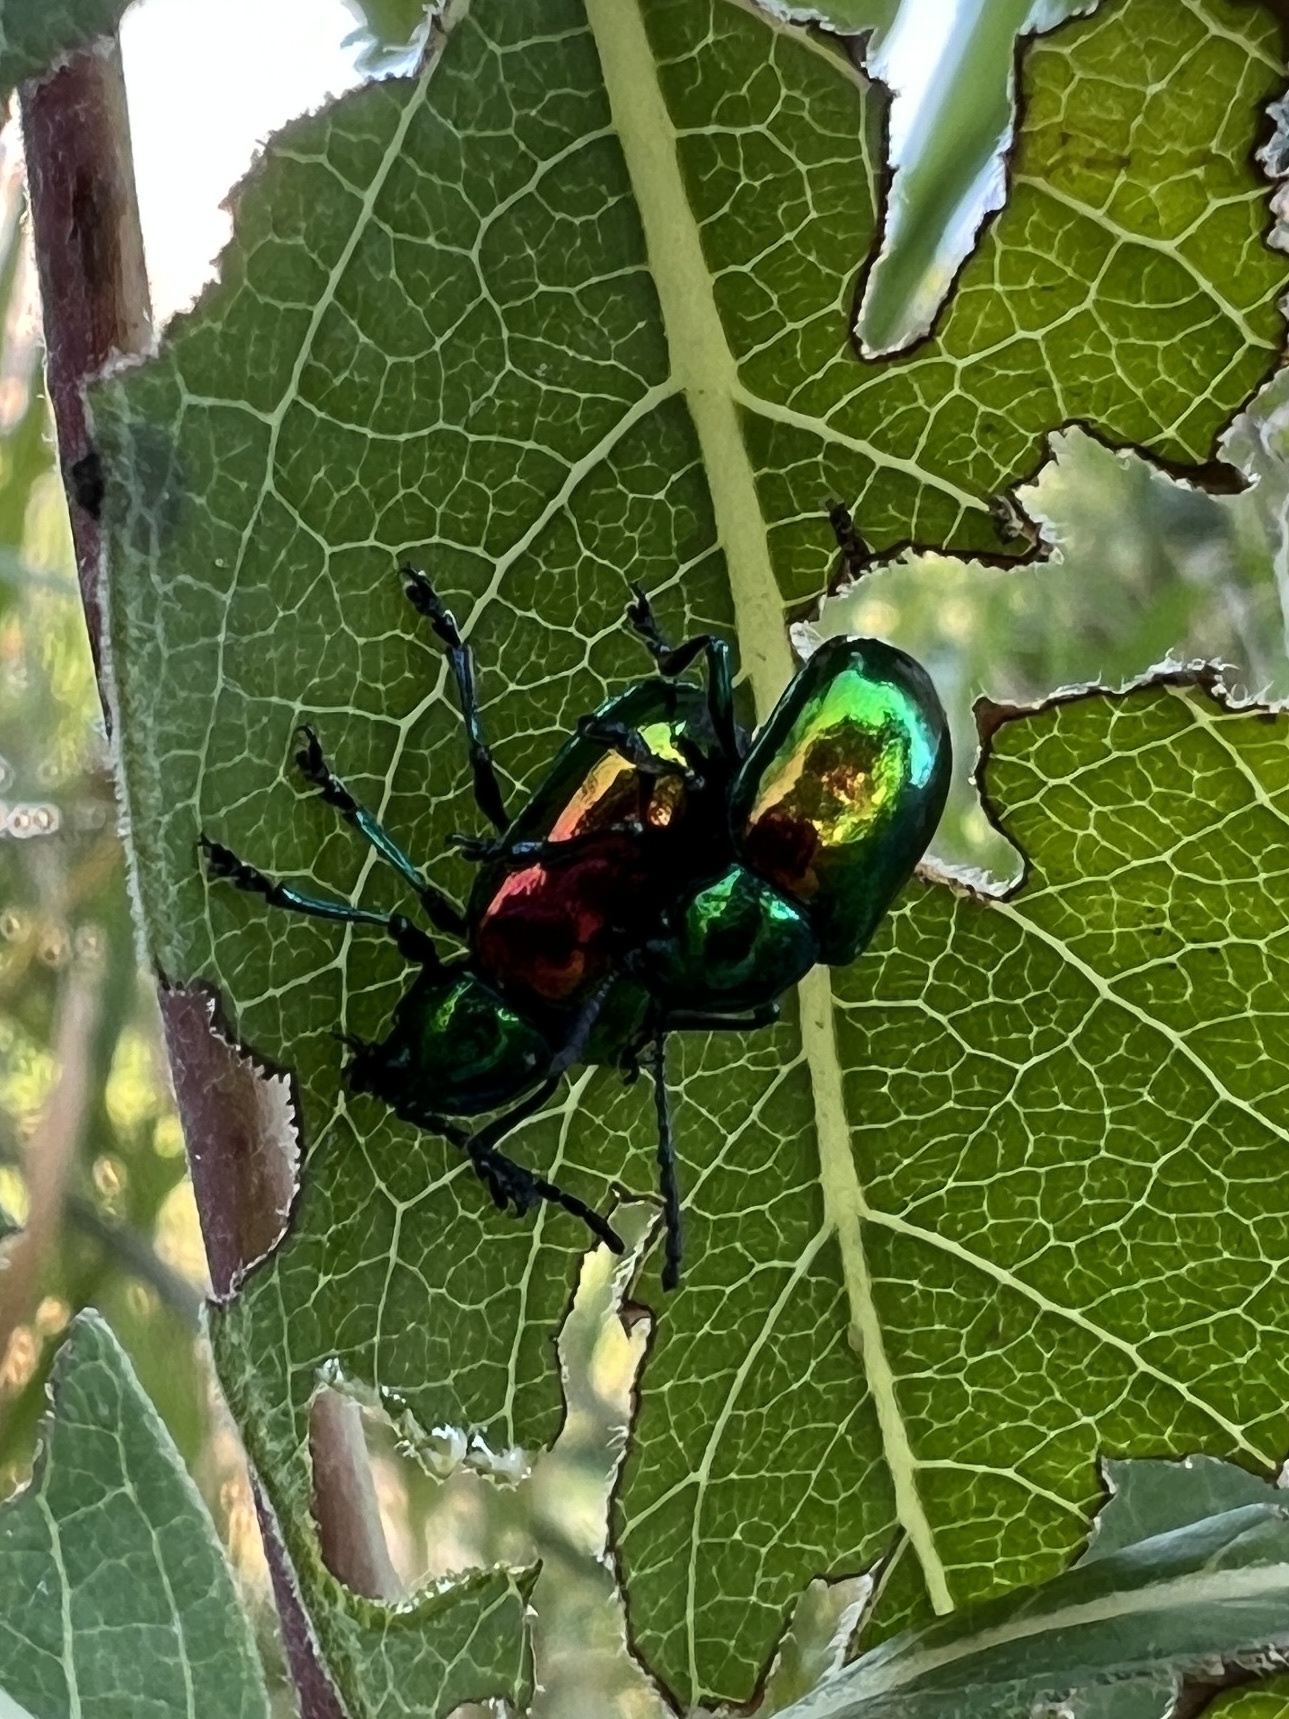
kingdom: Animalia
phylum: Arthropoda
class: Insecta
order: Coleoptera
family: Chrysomelidae
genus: Chrysochus
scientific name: Chrysochus auratus
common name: Dogbane leaf beetle
